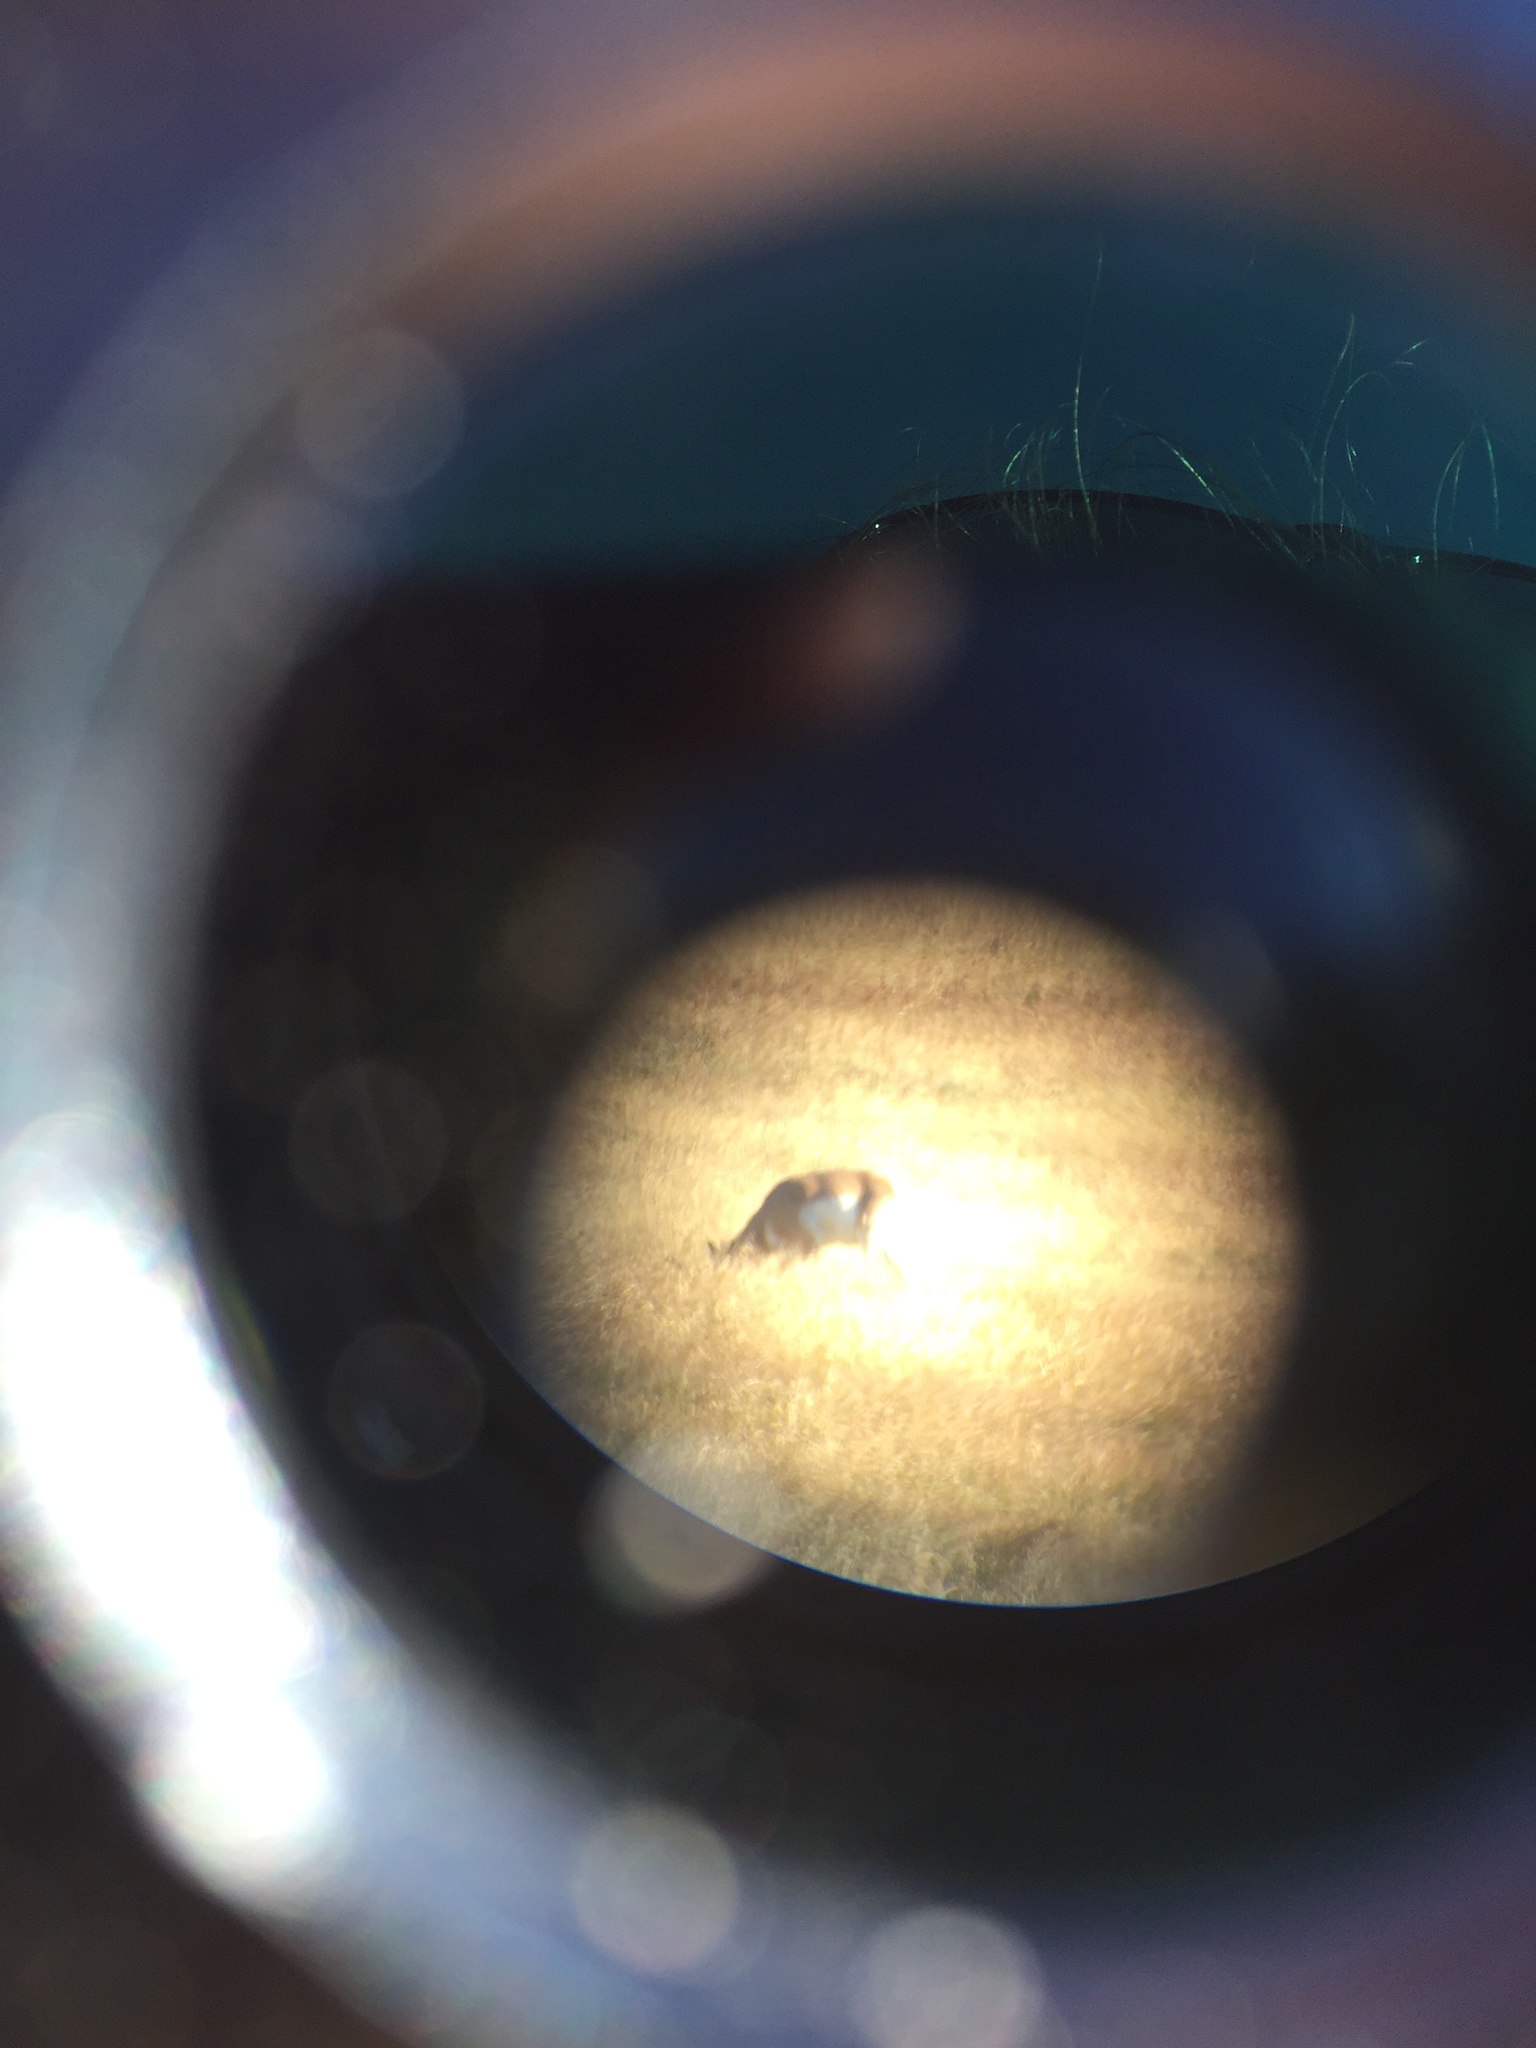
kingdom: Animalia
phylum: Chordata
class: Mammalia
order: Artiodactyla
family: Antilocapridae
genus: Antilocapra
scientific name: Antilocapra americana
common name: Pronghorn
